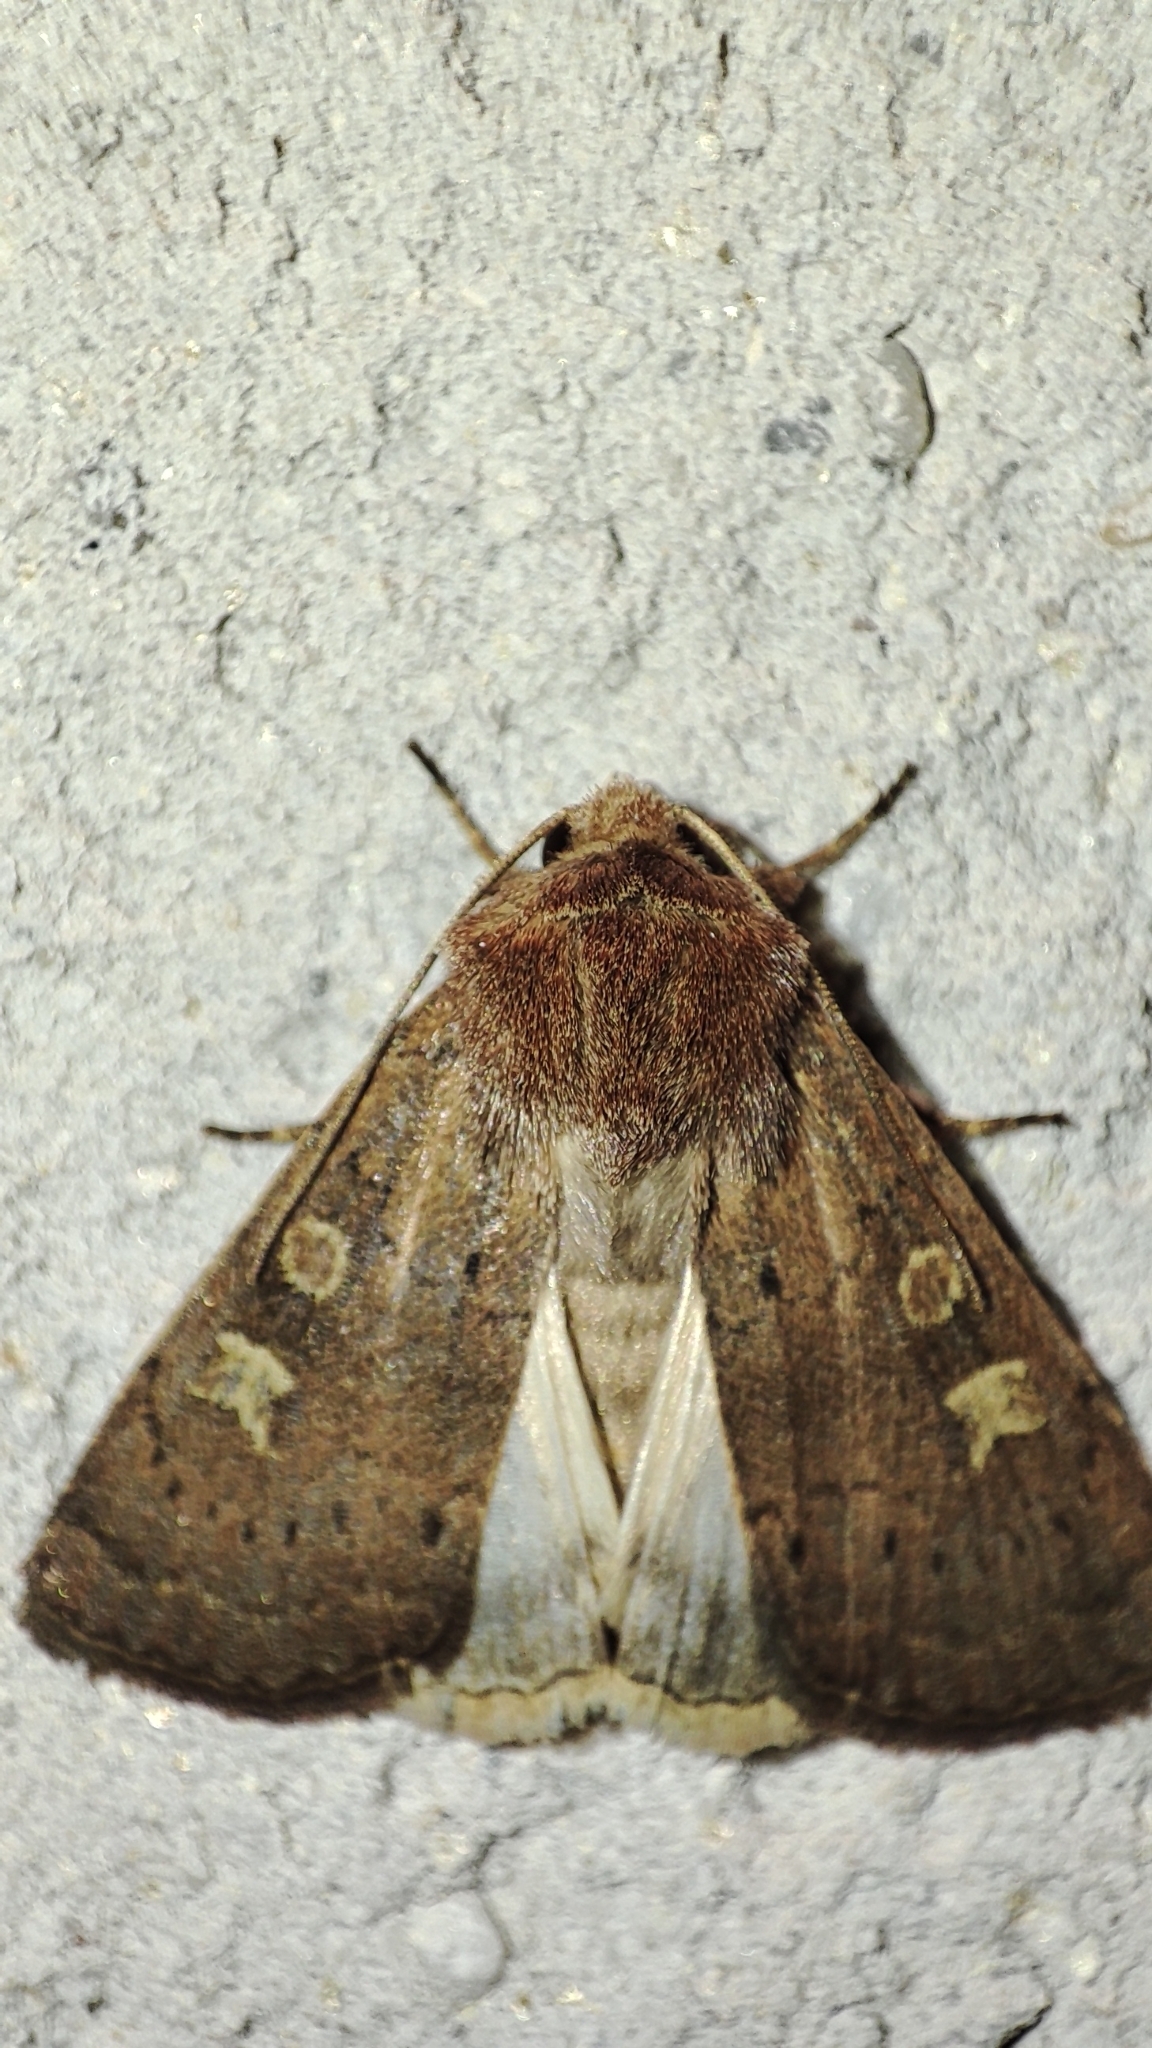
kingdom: Animalia
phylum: Arthropoda
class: Insecta
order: Lepidoptera
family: Noctuidae
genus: Xestia
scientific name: Xestia xanthographa
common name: Square-spot rustic
